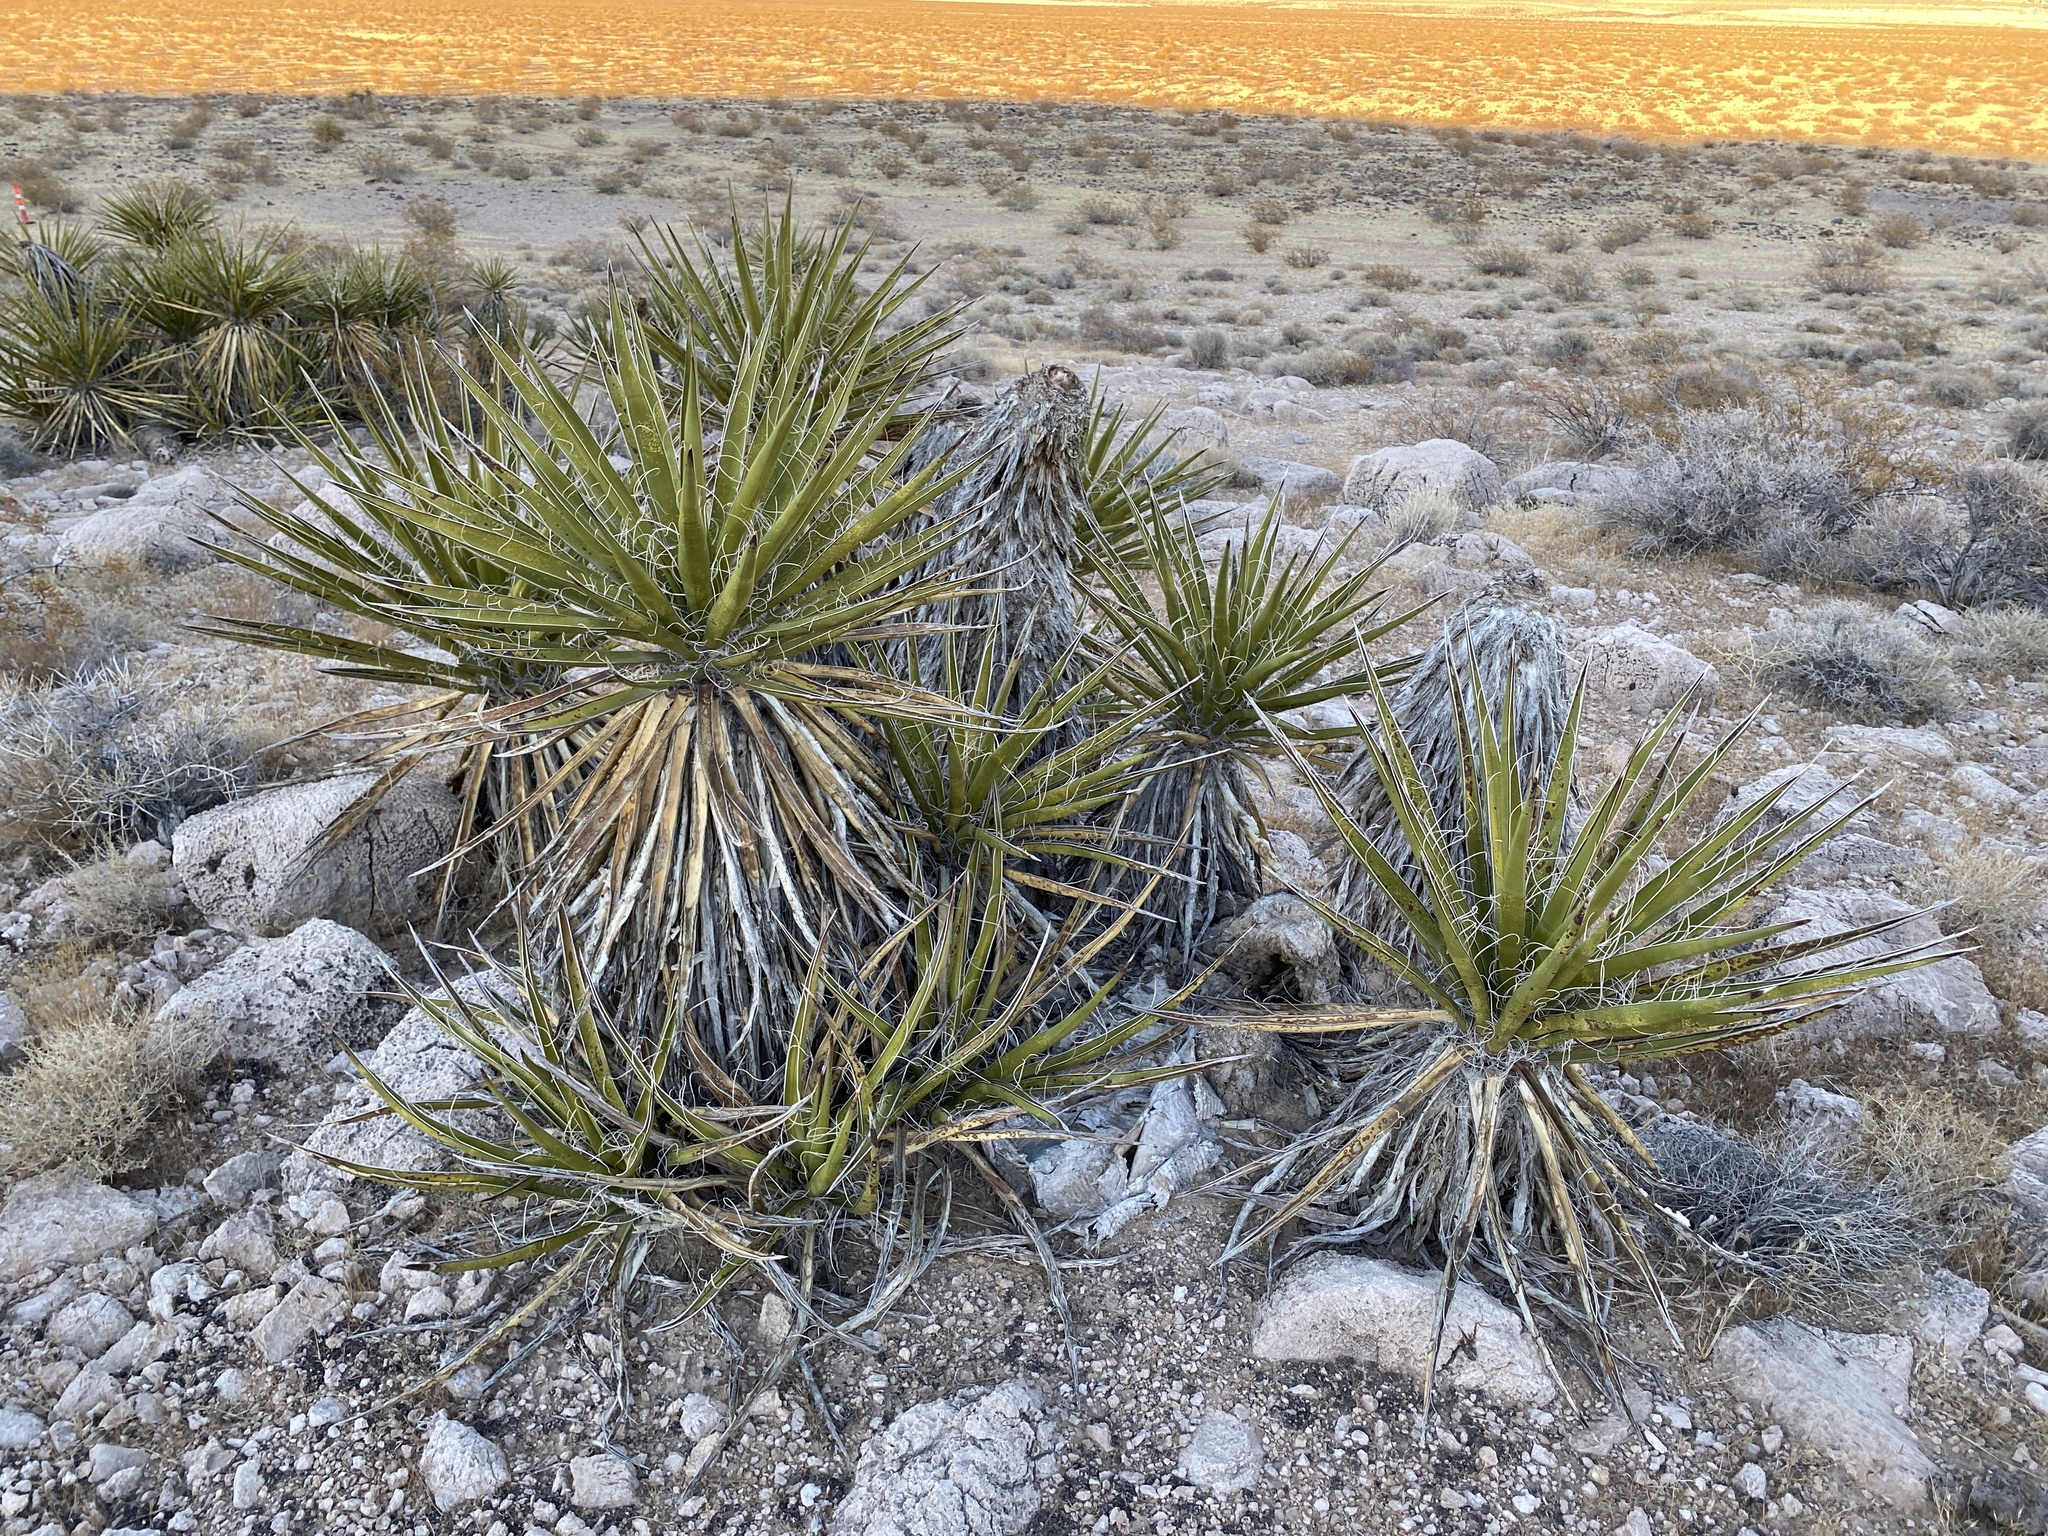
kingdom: Plantae
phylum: Tracheophyta
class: Liliopsida
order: Asparagales
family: Asparagaceae
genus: Yucca
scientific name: Yucca schidigera
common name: Mojave yucca
